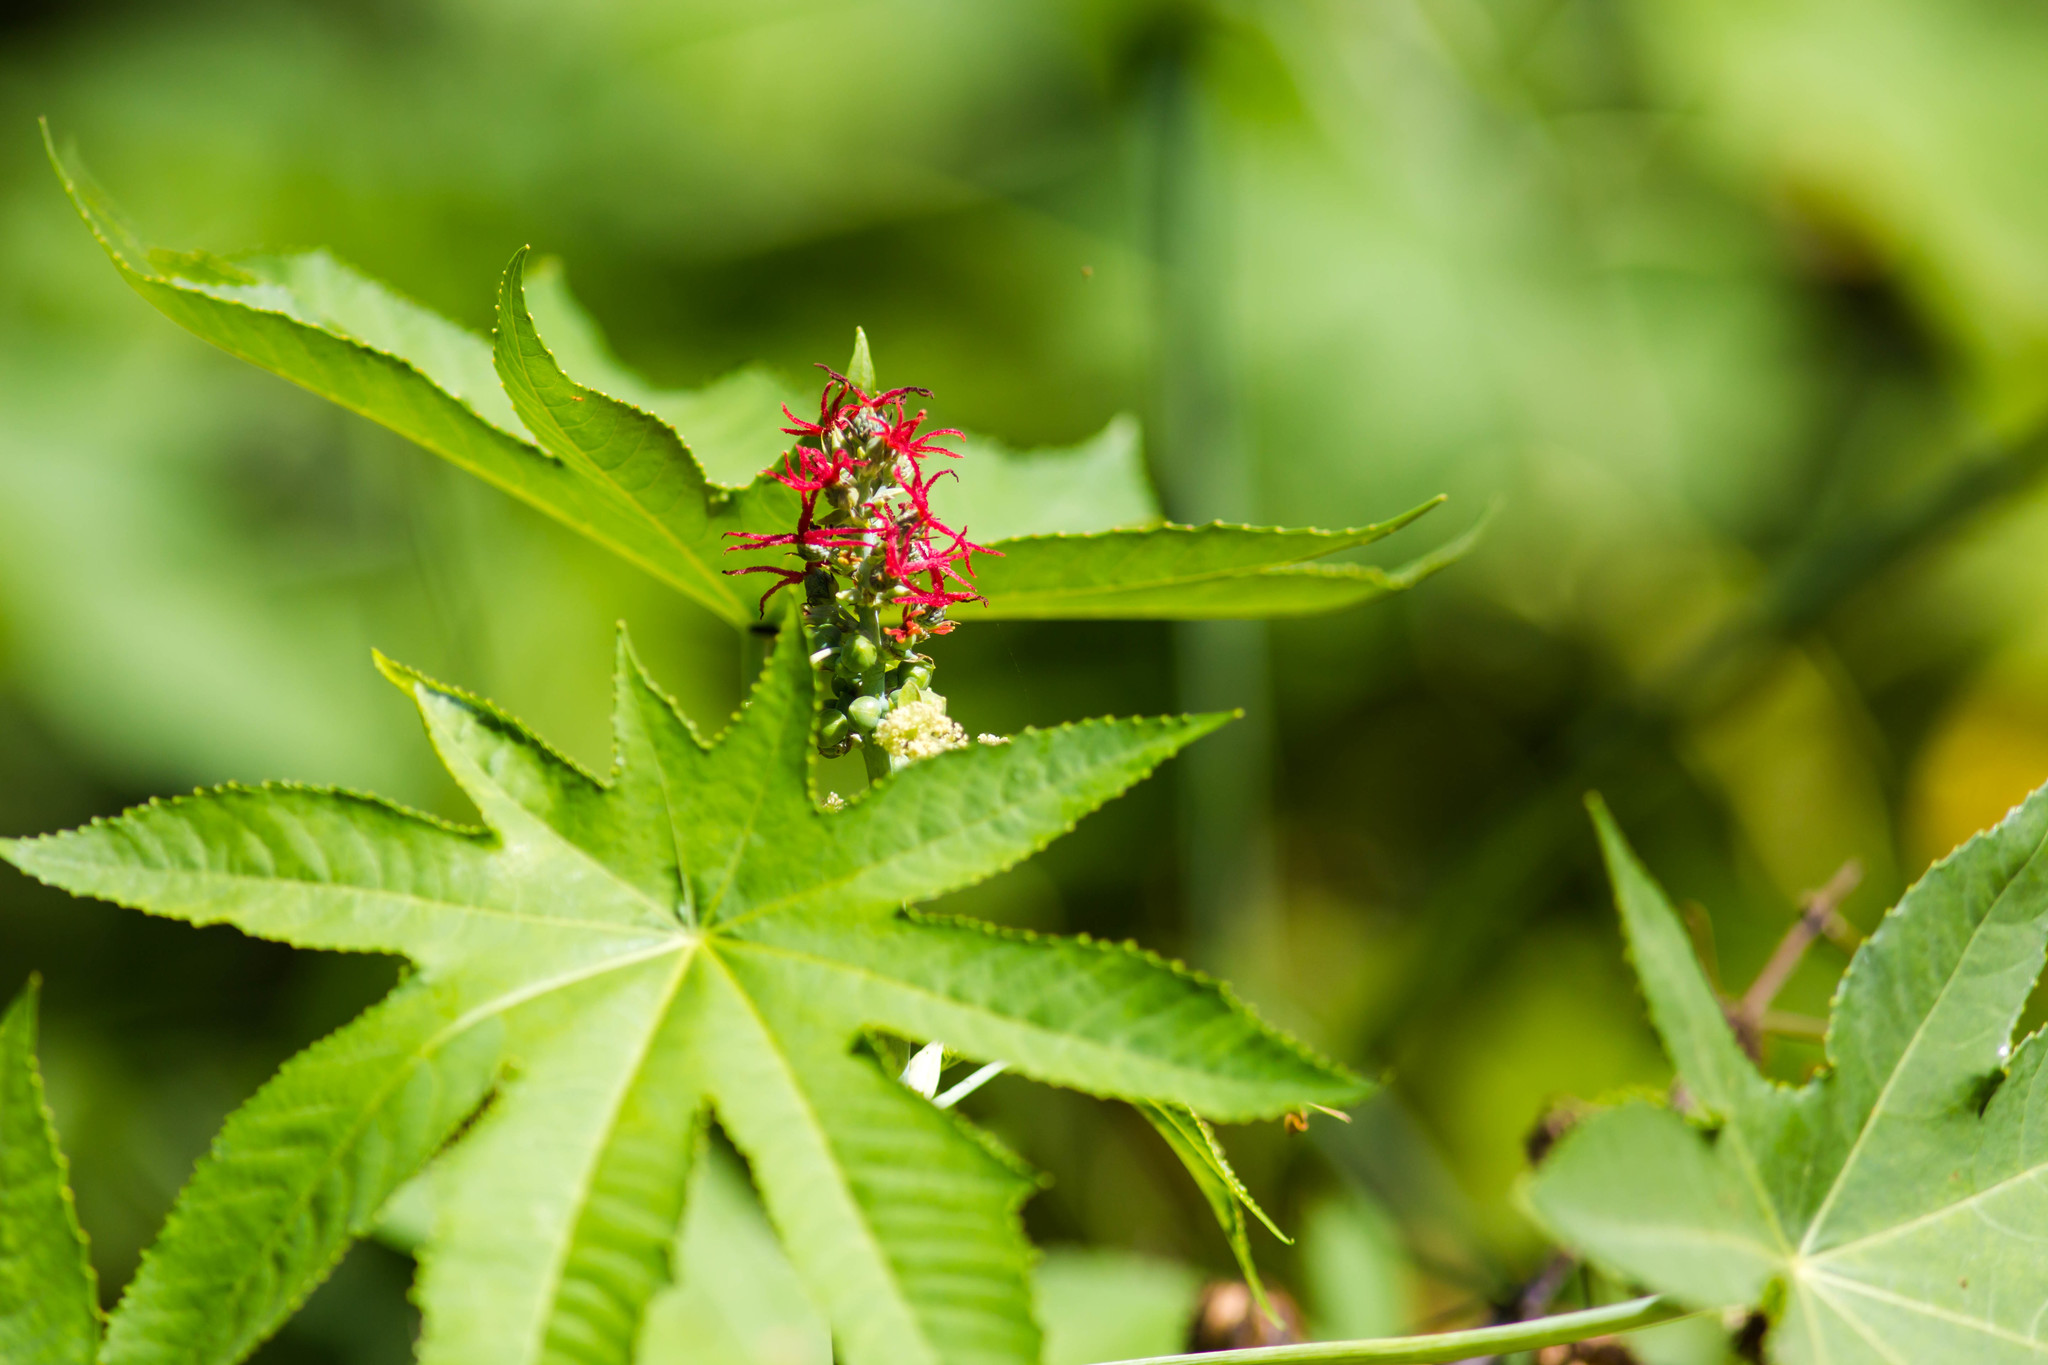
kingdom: Plantae
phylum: Tracheophyta
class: Magnoliopsida
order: Malpighiales
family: Euphorbiaceae
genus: Ricinus
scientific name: Ricinus communis
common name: Castor-oil-plant
